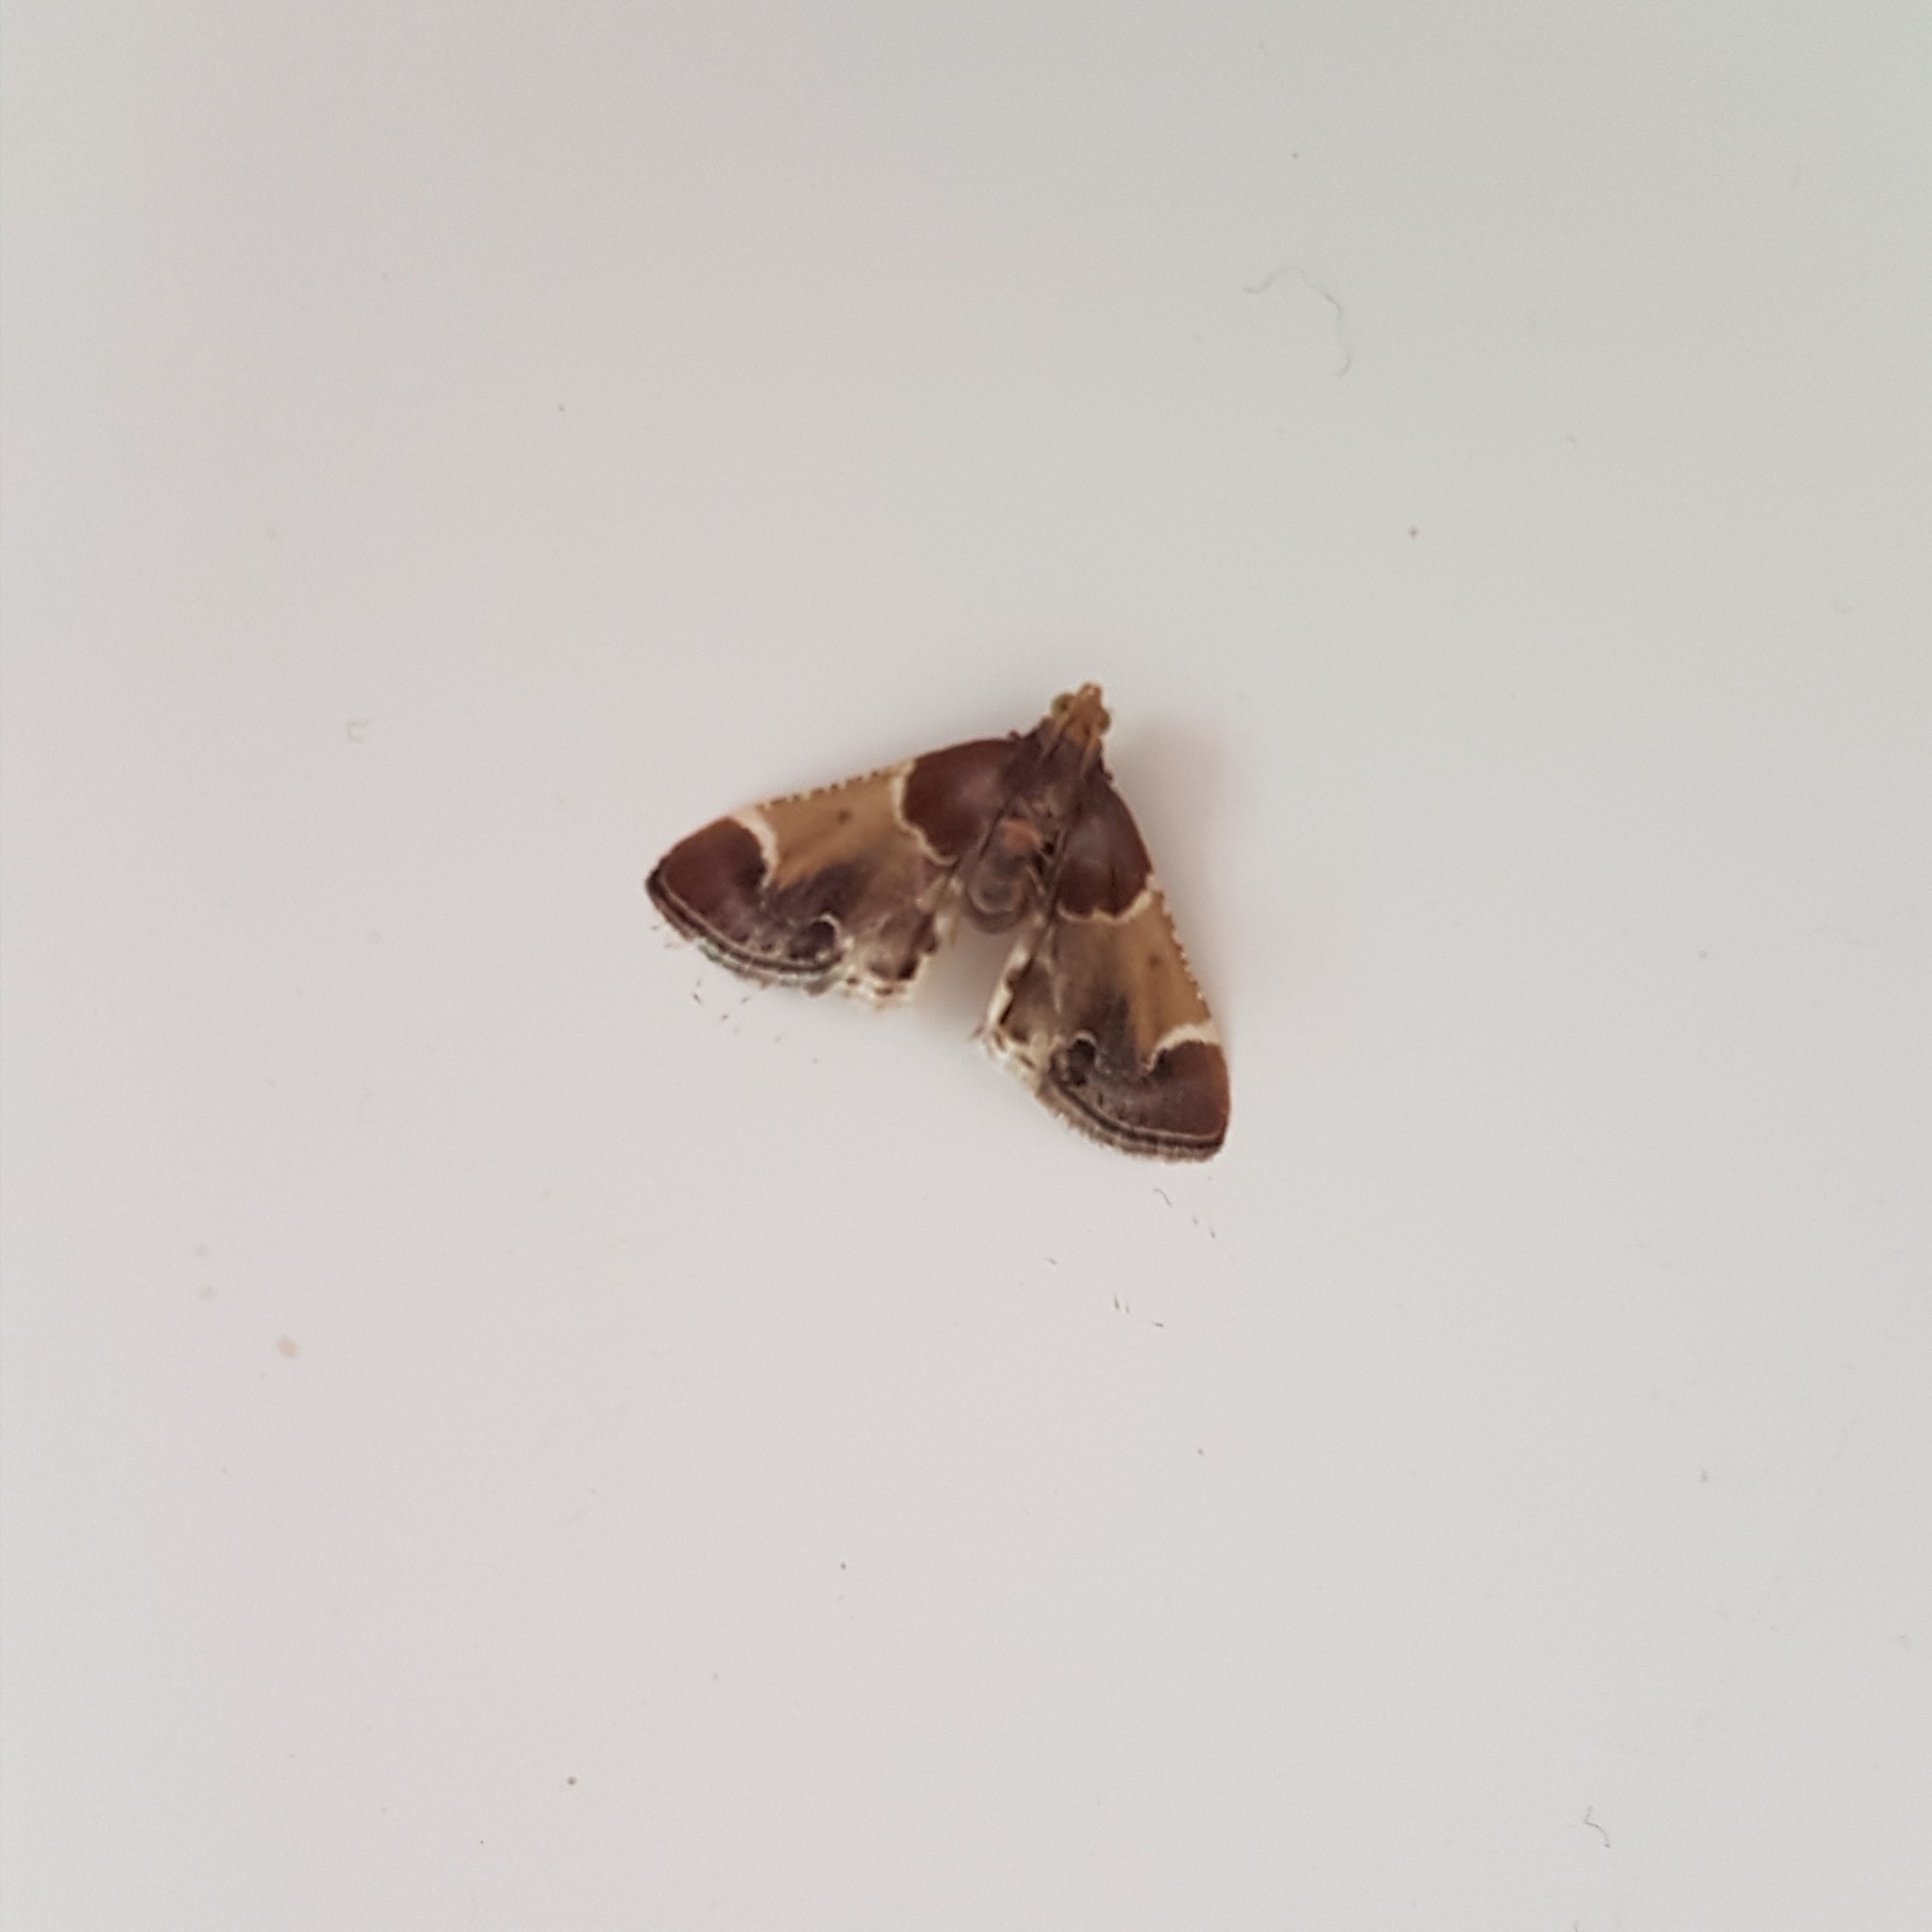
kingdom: Animalia
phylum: Arthropoda
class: Insecta
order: Lepidoptera
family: Pyralidae
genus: Pyralis
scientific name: Pyralis farinalis
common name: Meal moth
